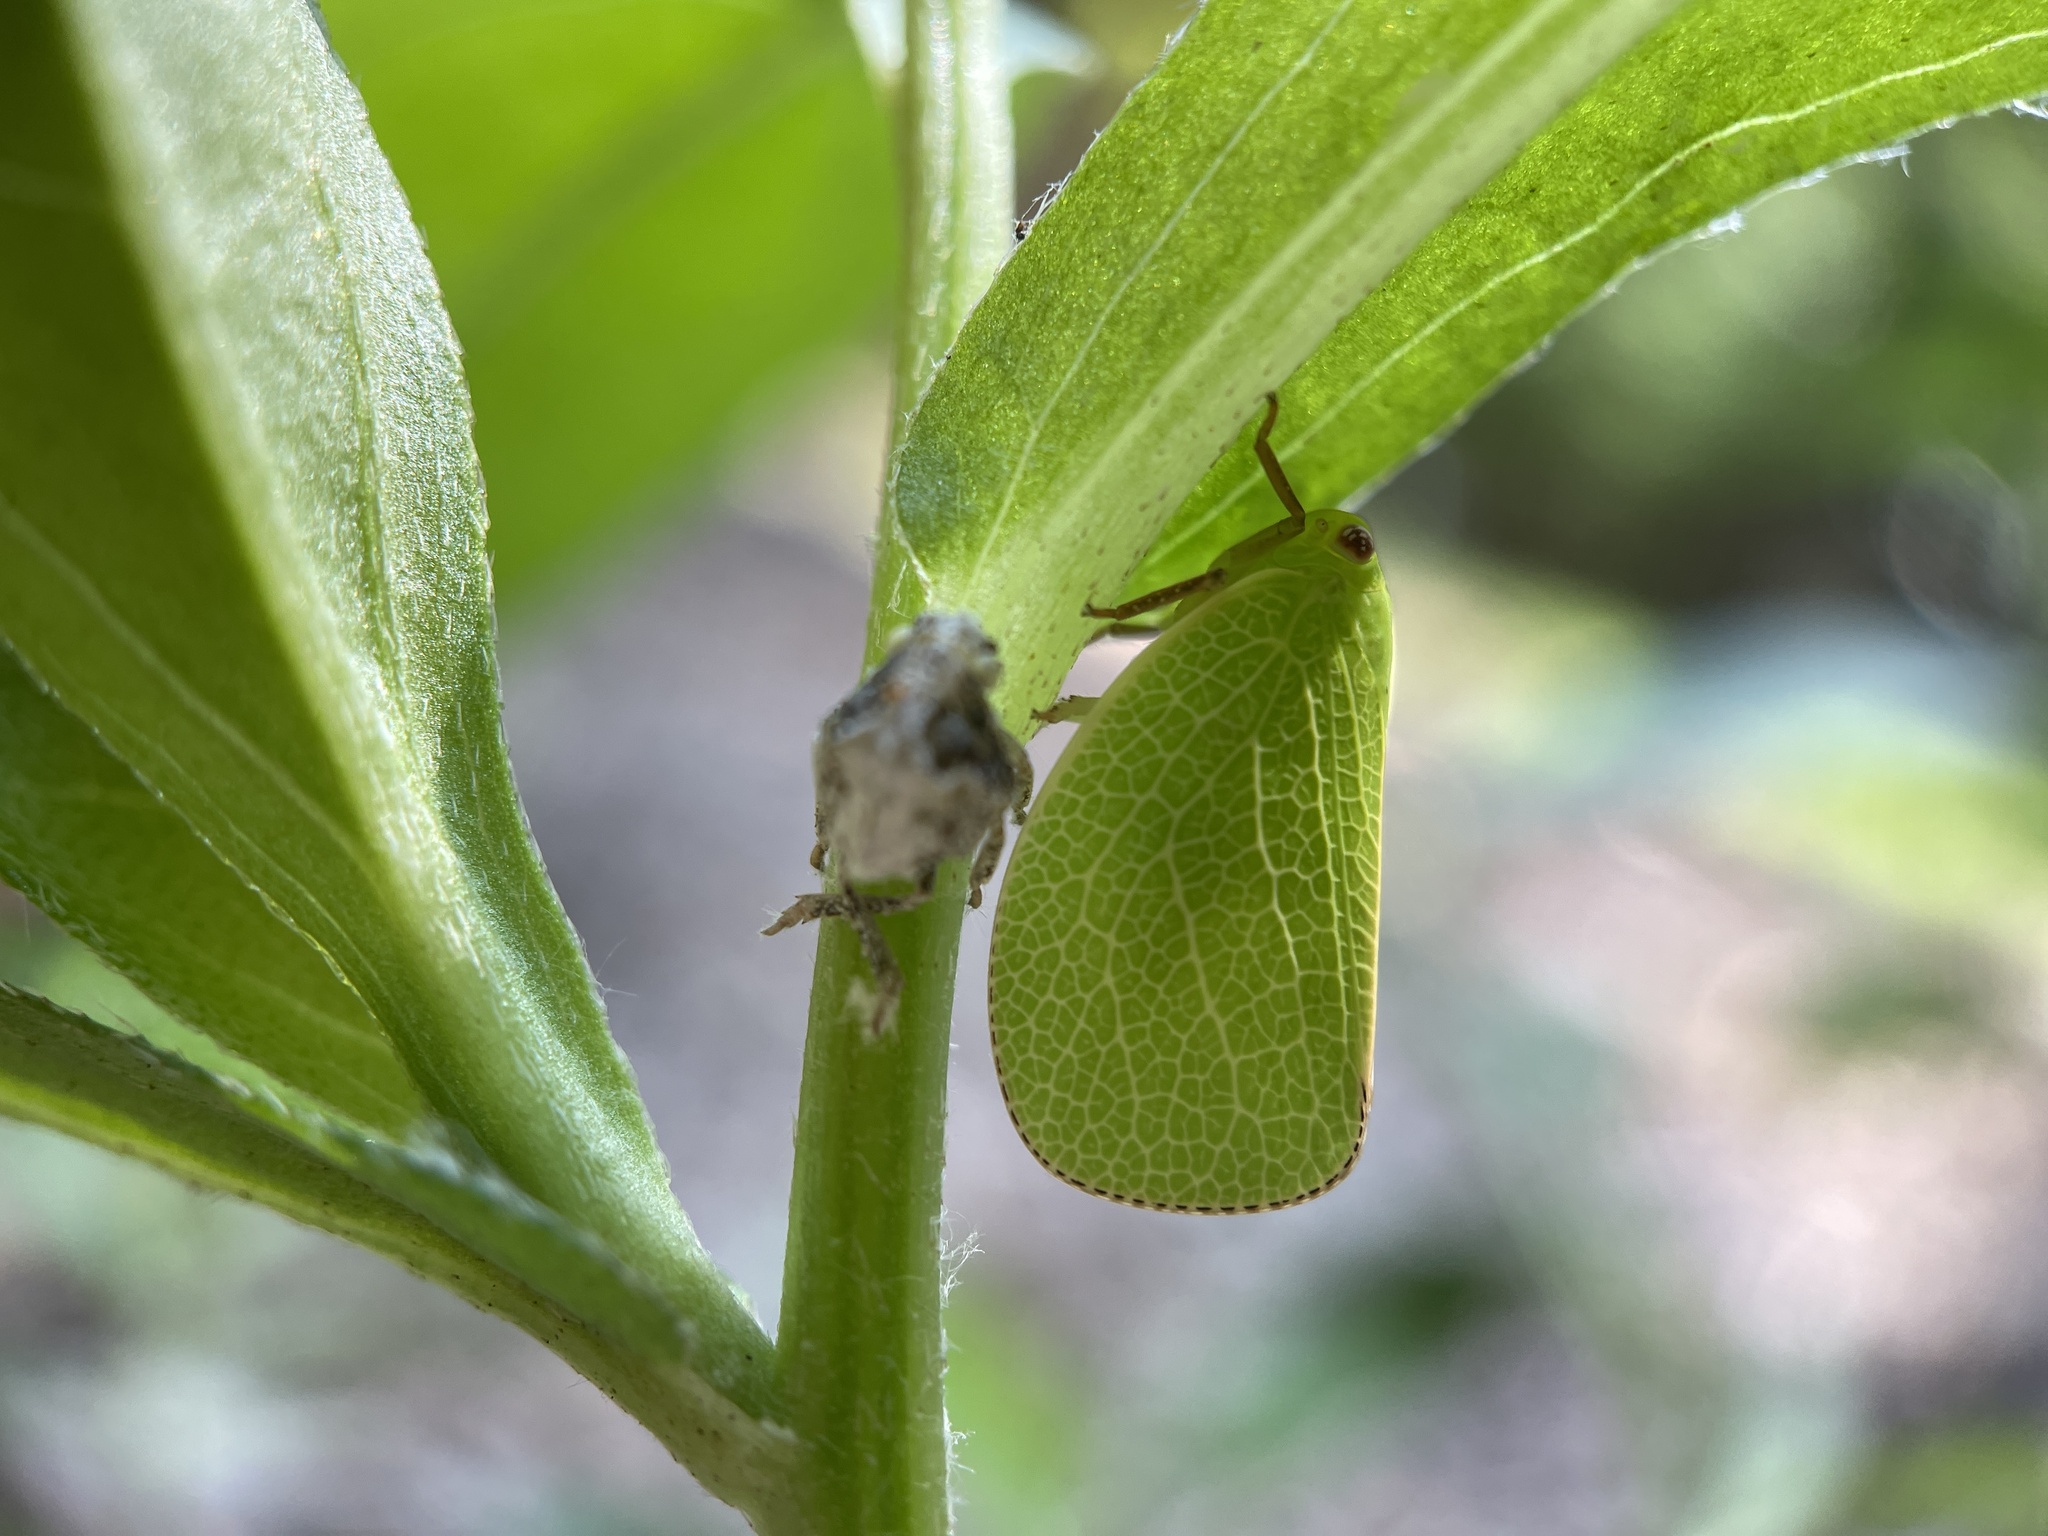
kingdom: Animalia
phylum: Arthropoda
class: Insecta
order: Hemiptera
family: Acanaloniidae
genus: Acanalonia
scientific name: Acanalonia servillei
